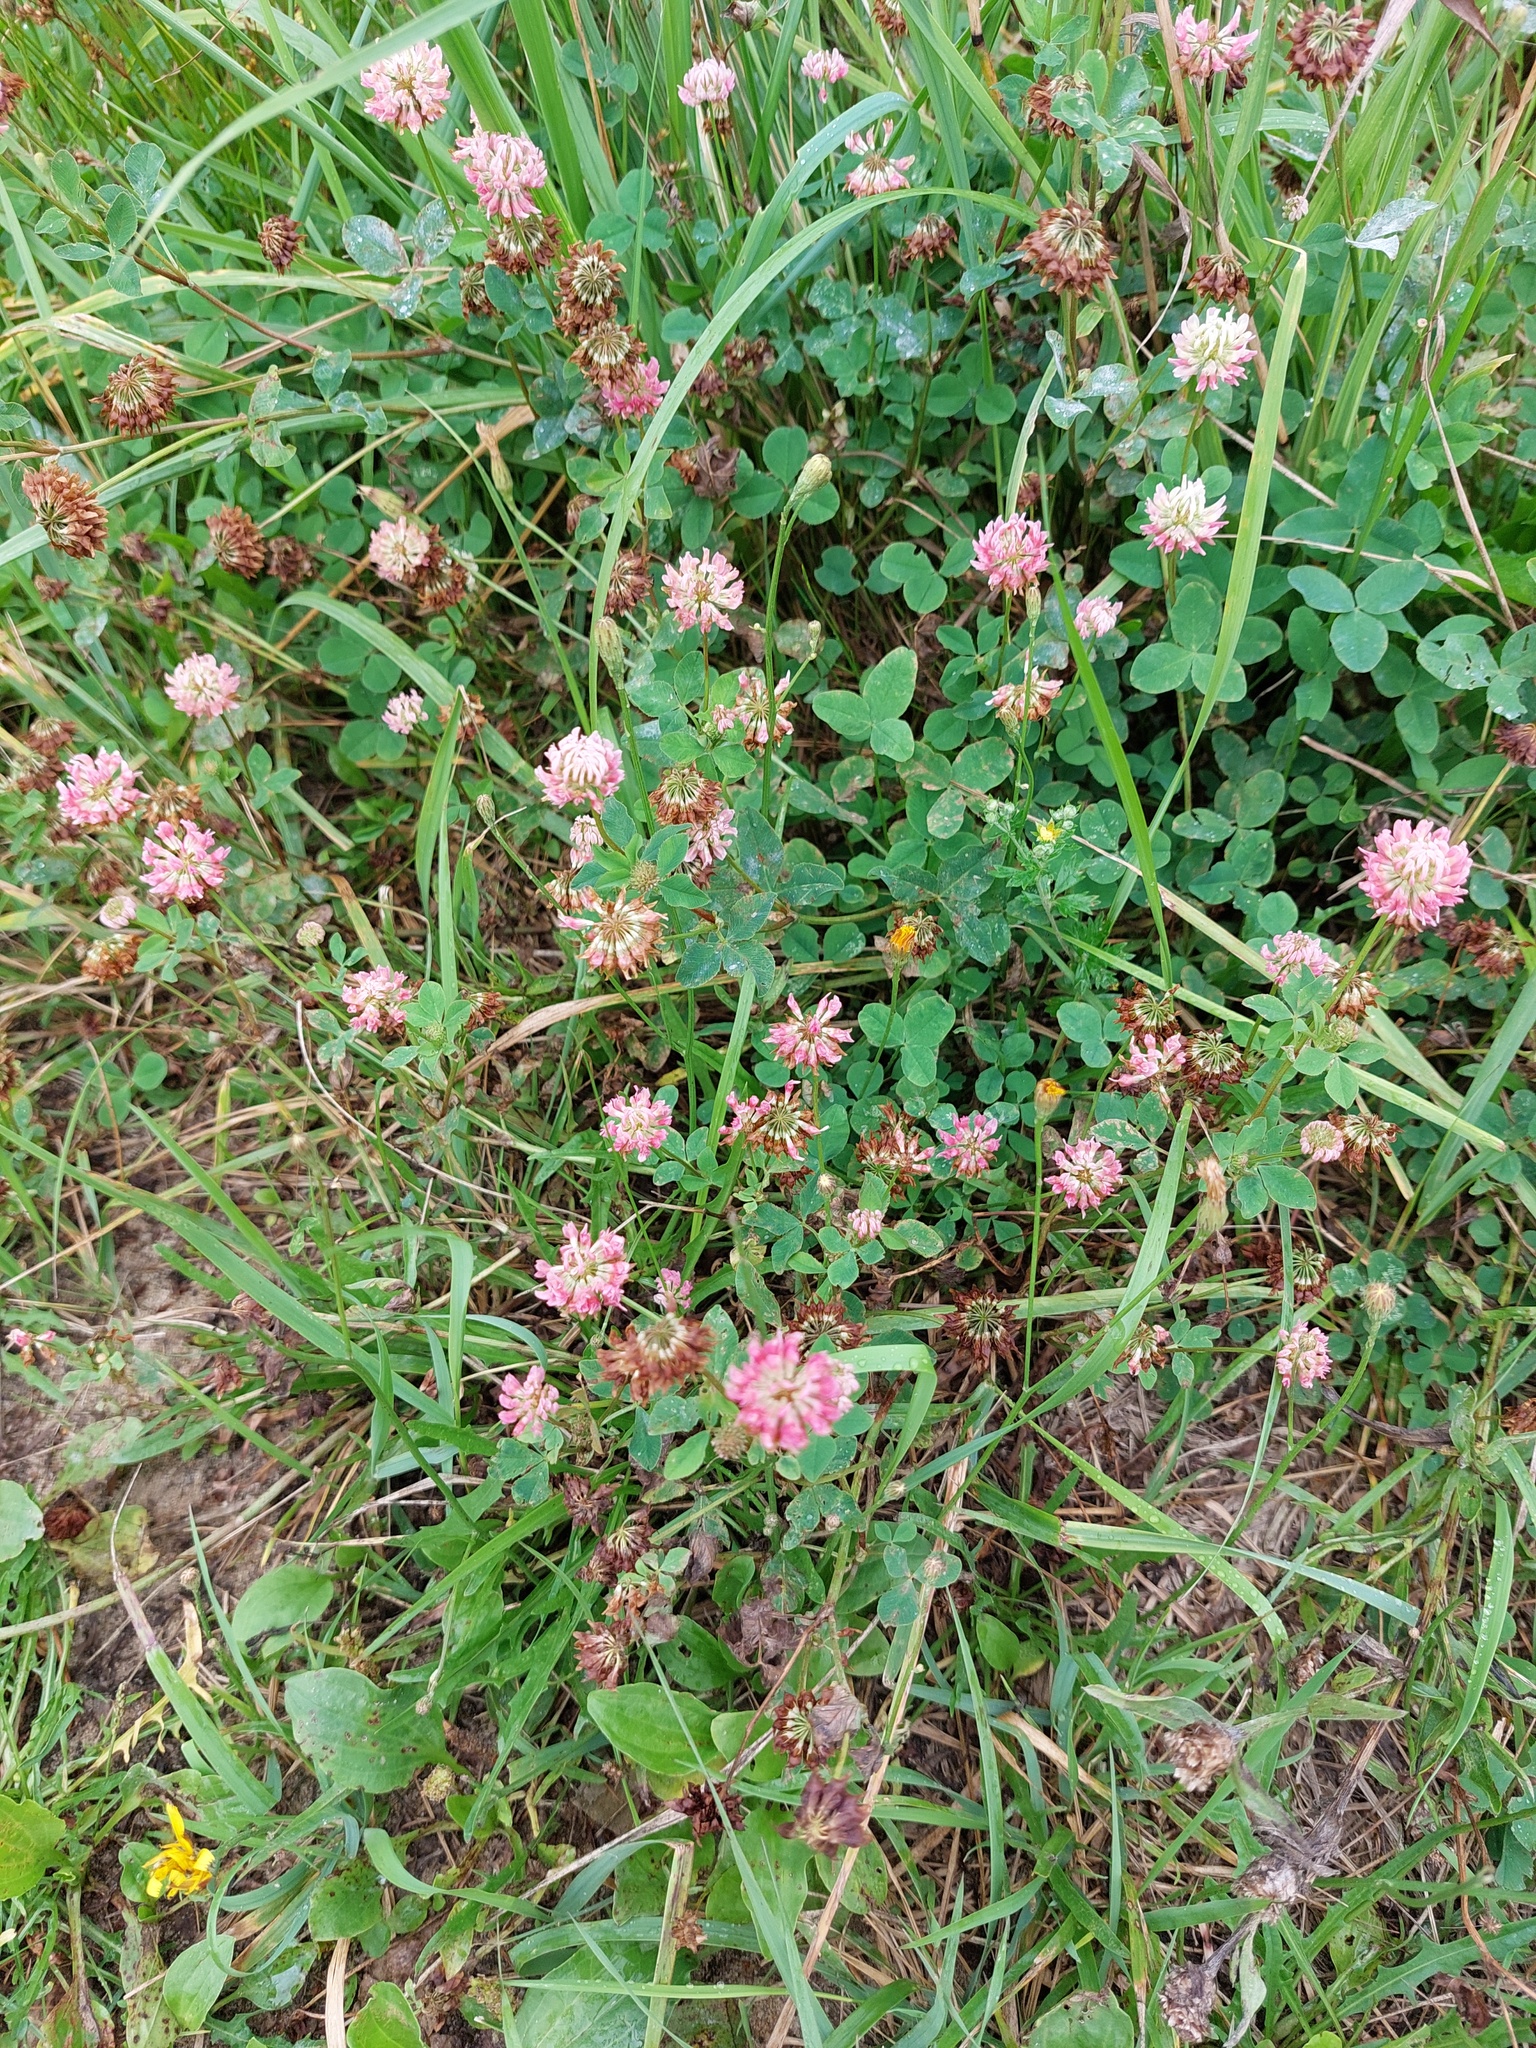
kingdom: Plantae
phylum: Tracheophyta
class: Magnoliopsida
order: Fabales
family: Fabaceae
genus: Trifolium
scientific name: Trifolium hybridum
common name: Alsike clover
